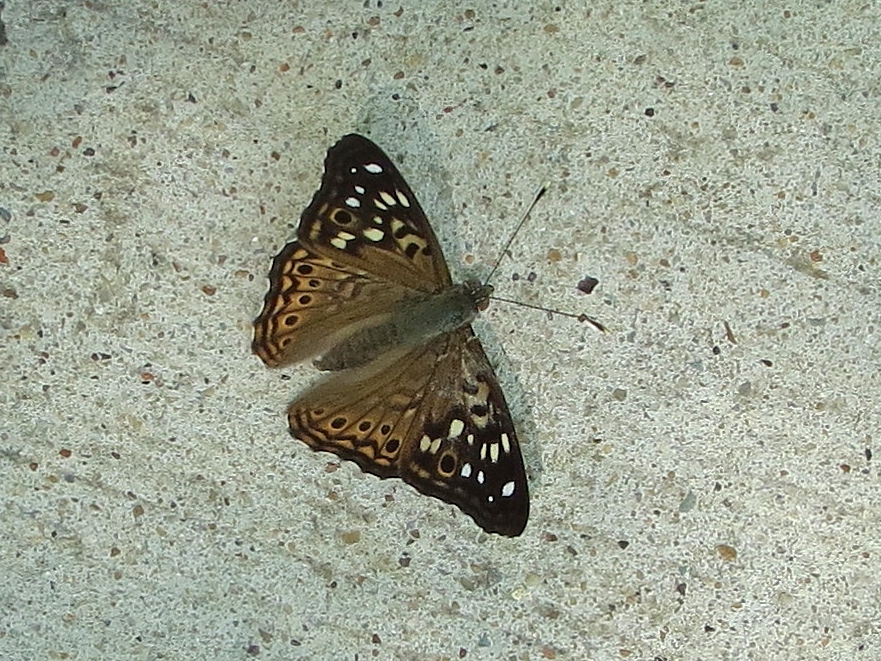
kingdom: Animalia
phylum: Arthropoda
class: Insecta
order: Lepidoptera
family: Nymphalidae
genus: Asterocampa
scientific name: Asterocampa celtis
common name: Hackberry emperor
